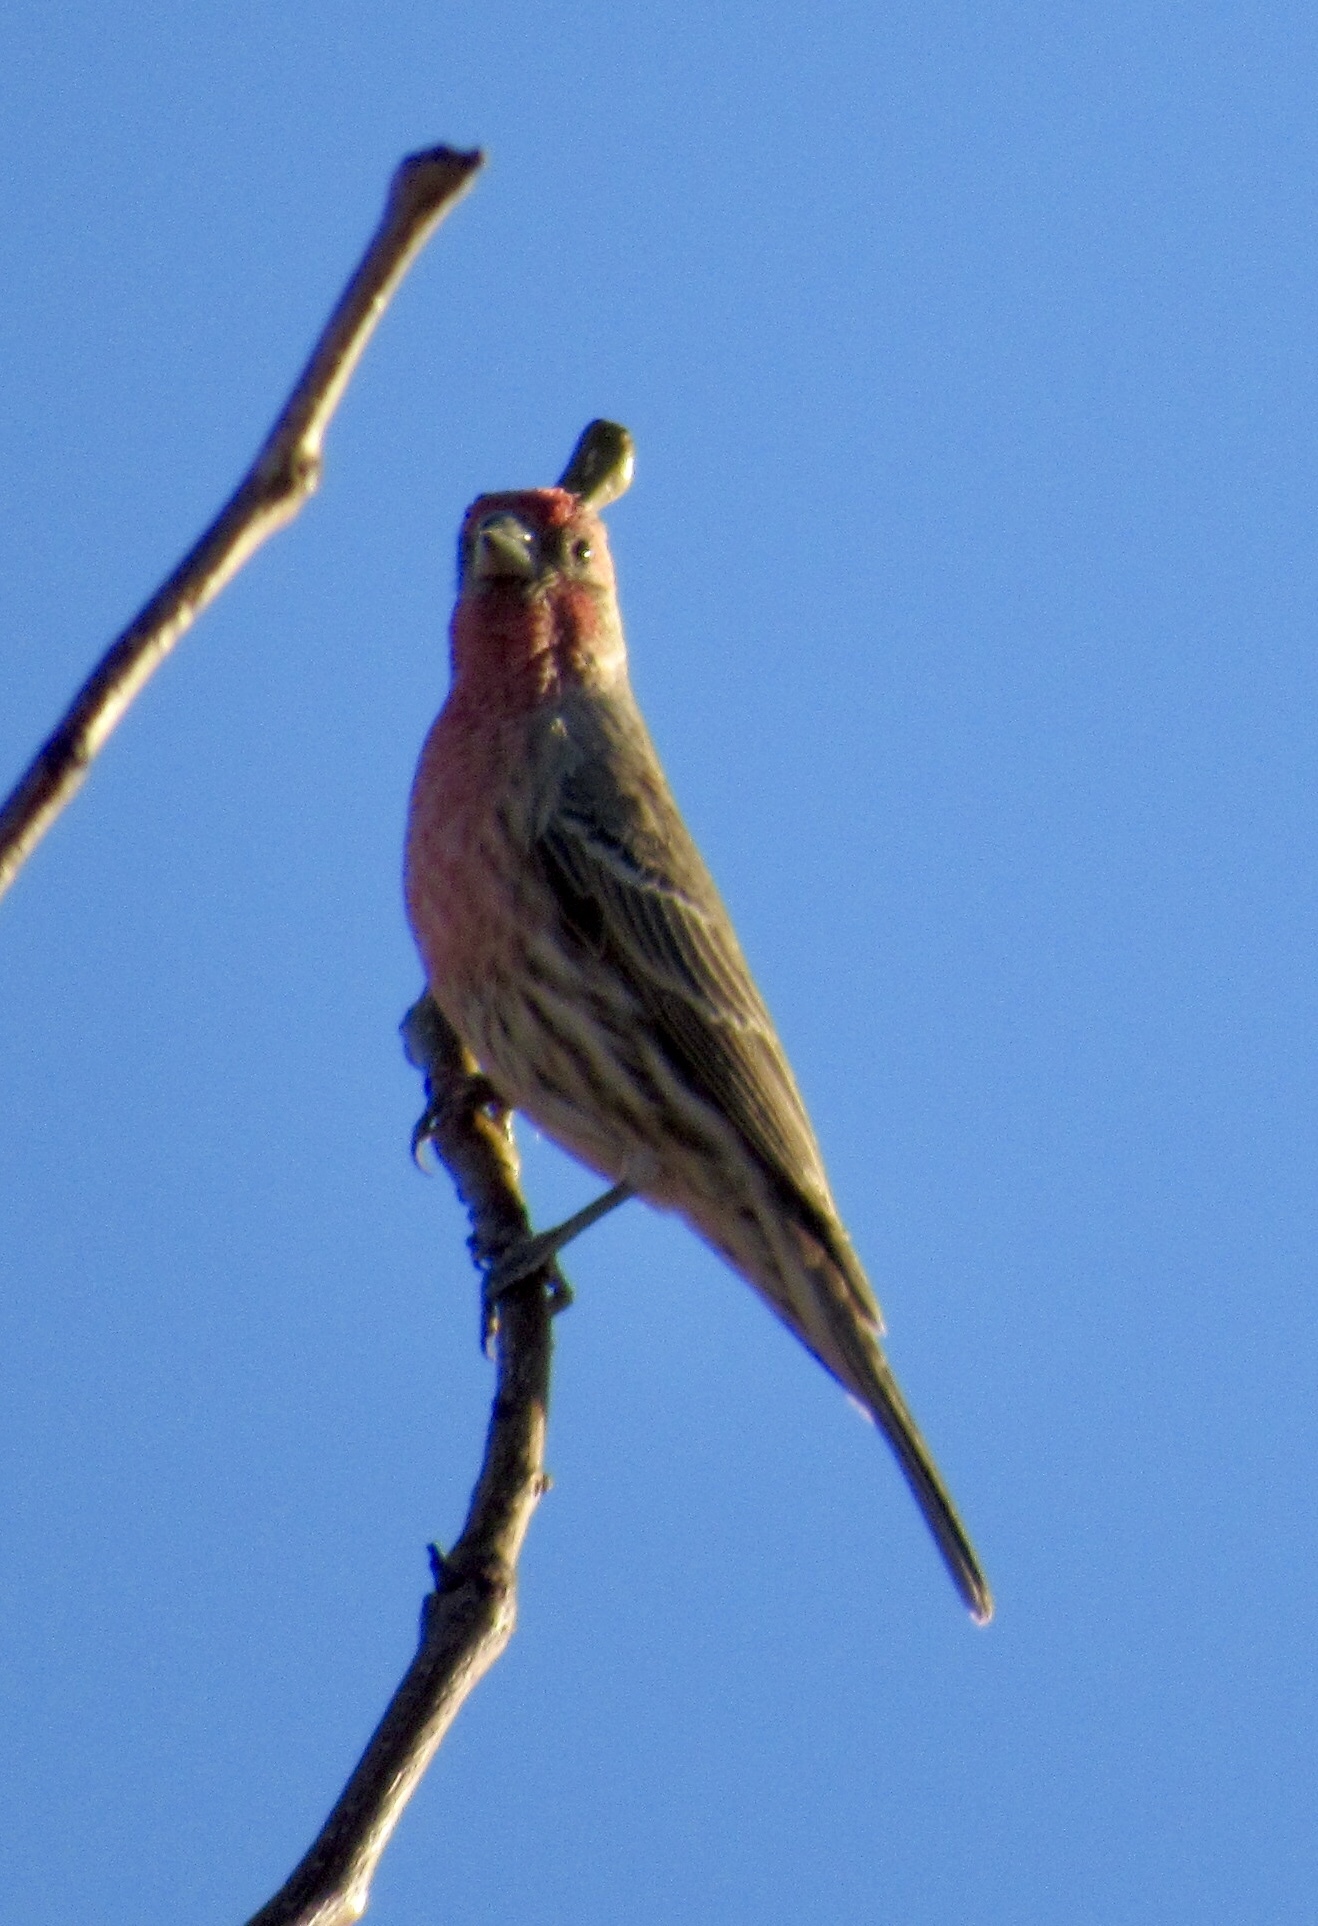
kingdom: Animalia
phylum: Chordata
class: Aves
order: Passeriformes
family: Fringillidae
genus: Haemorhous
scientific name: Haemorhous mexicanus
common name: House finch
